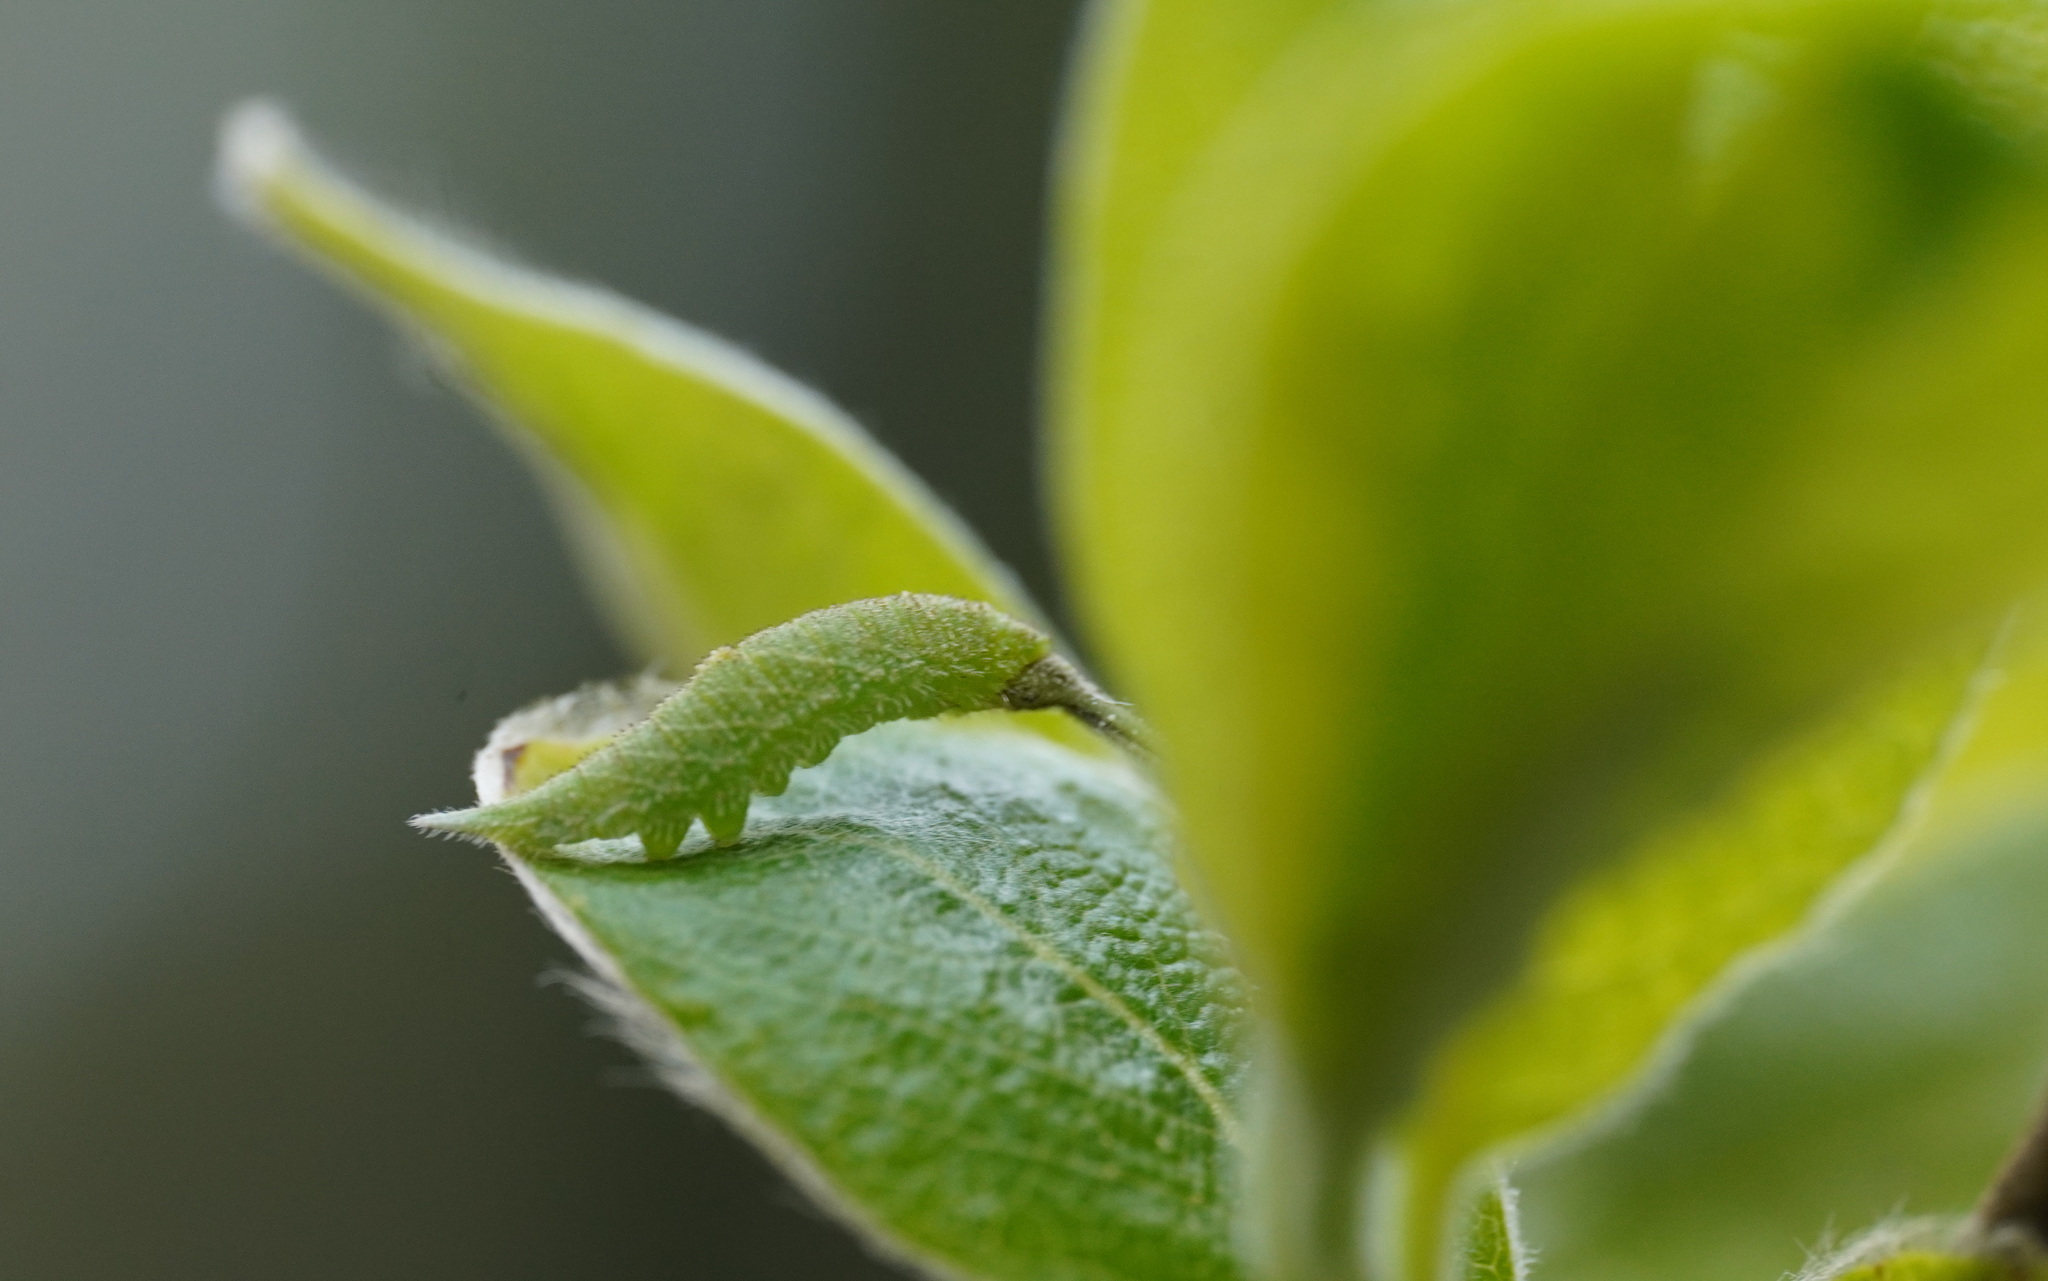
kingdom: Animalia
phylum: Arthropoda
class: Insecta
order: Lepidoptera
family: Nymphalidae
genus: Apatura
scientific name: Apatura iris
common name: Purple emperor
